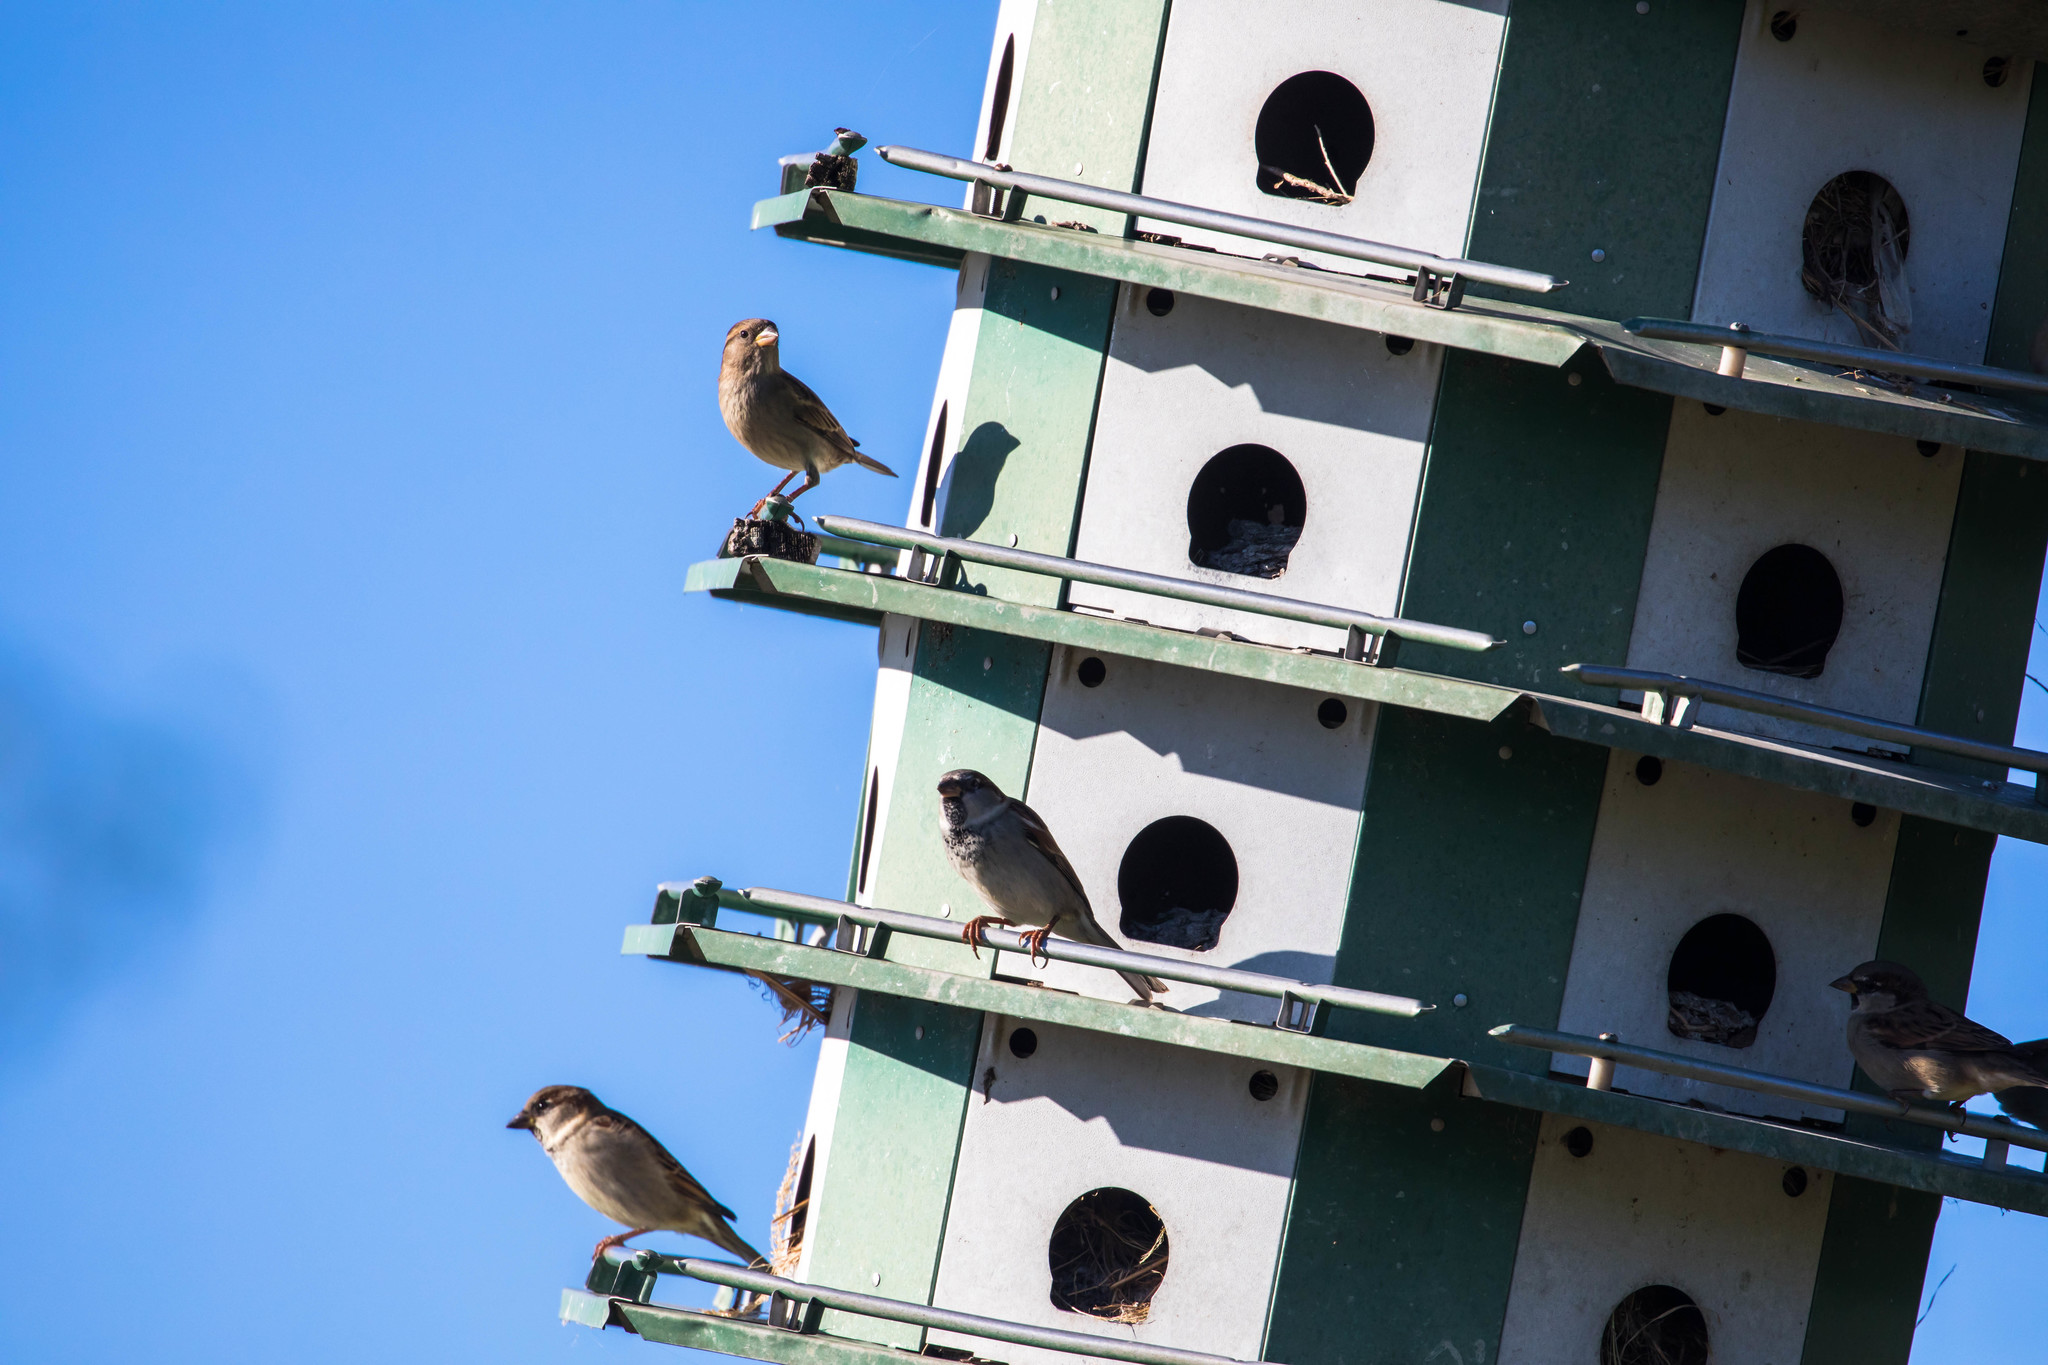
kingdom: Animalia
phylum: Chordata
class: Aves
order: Passeriformes
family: Passeridae
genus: Passer
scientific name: Passer domesticus
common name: House sparrow
